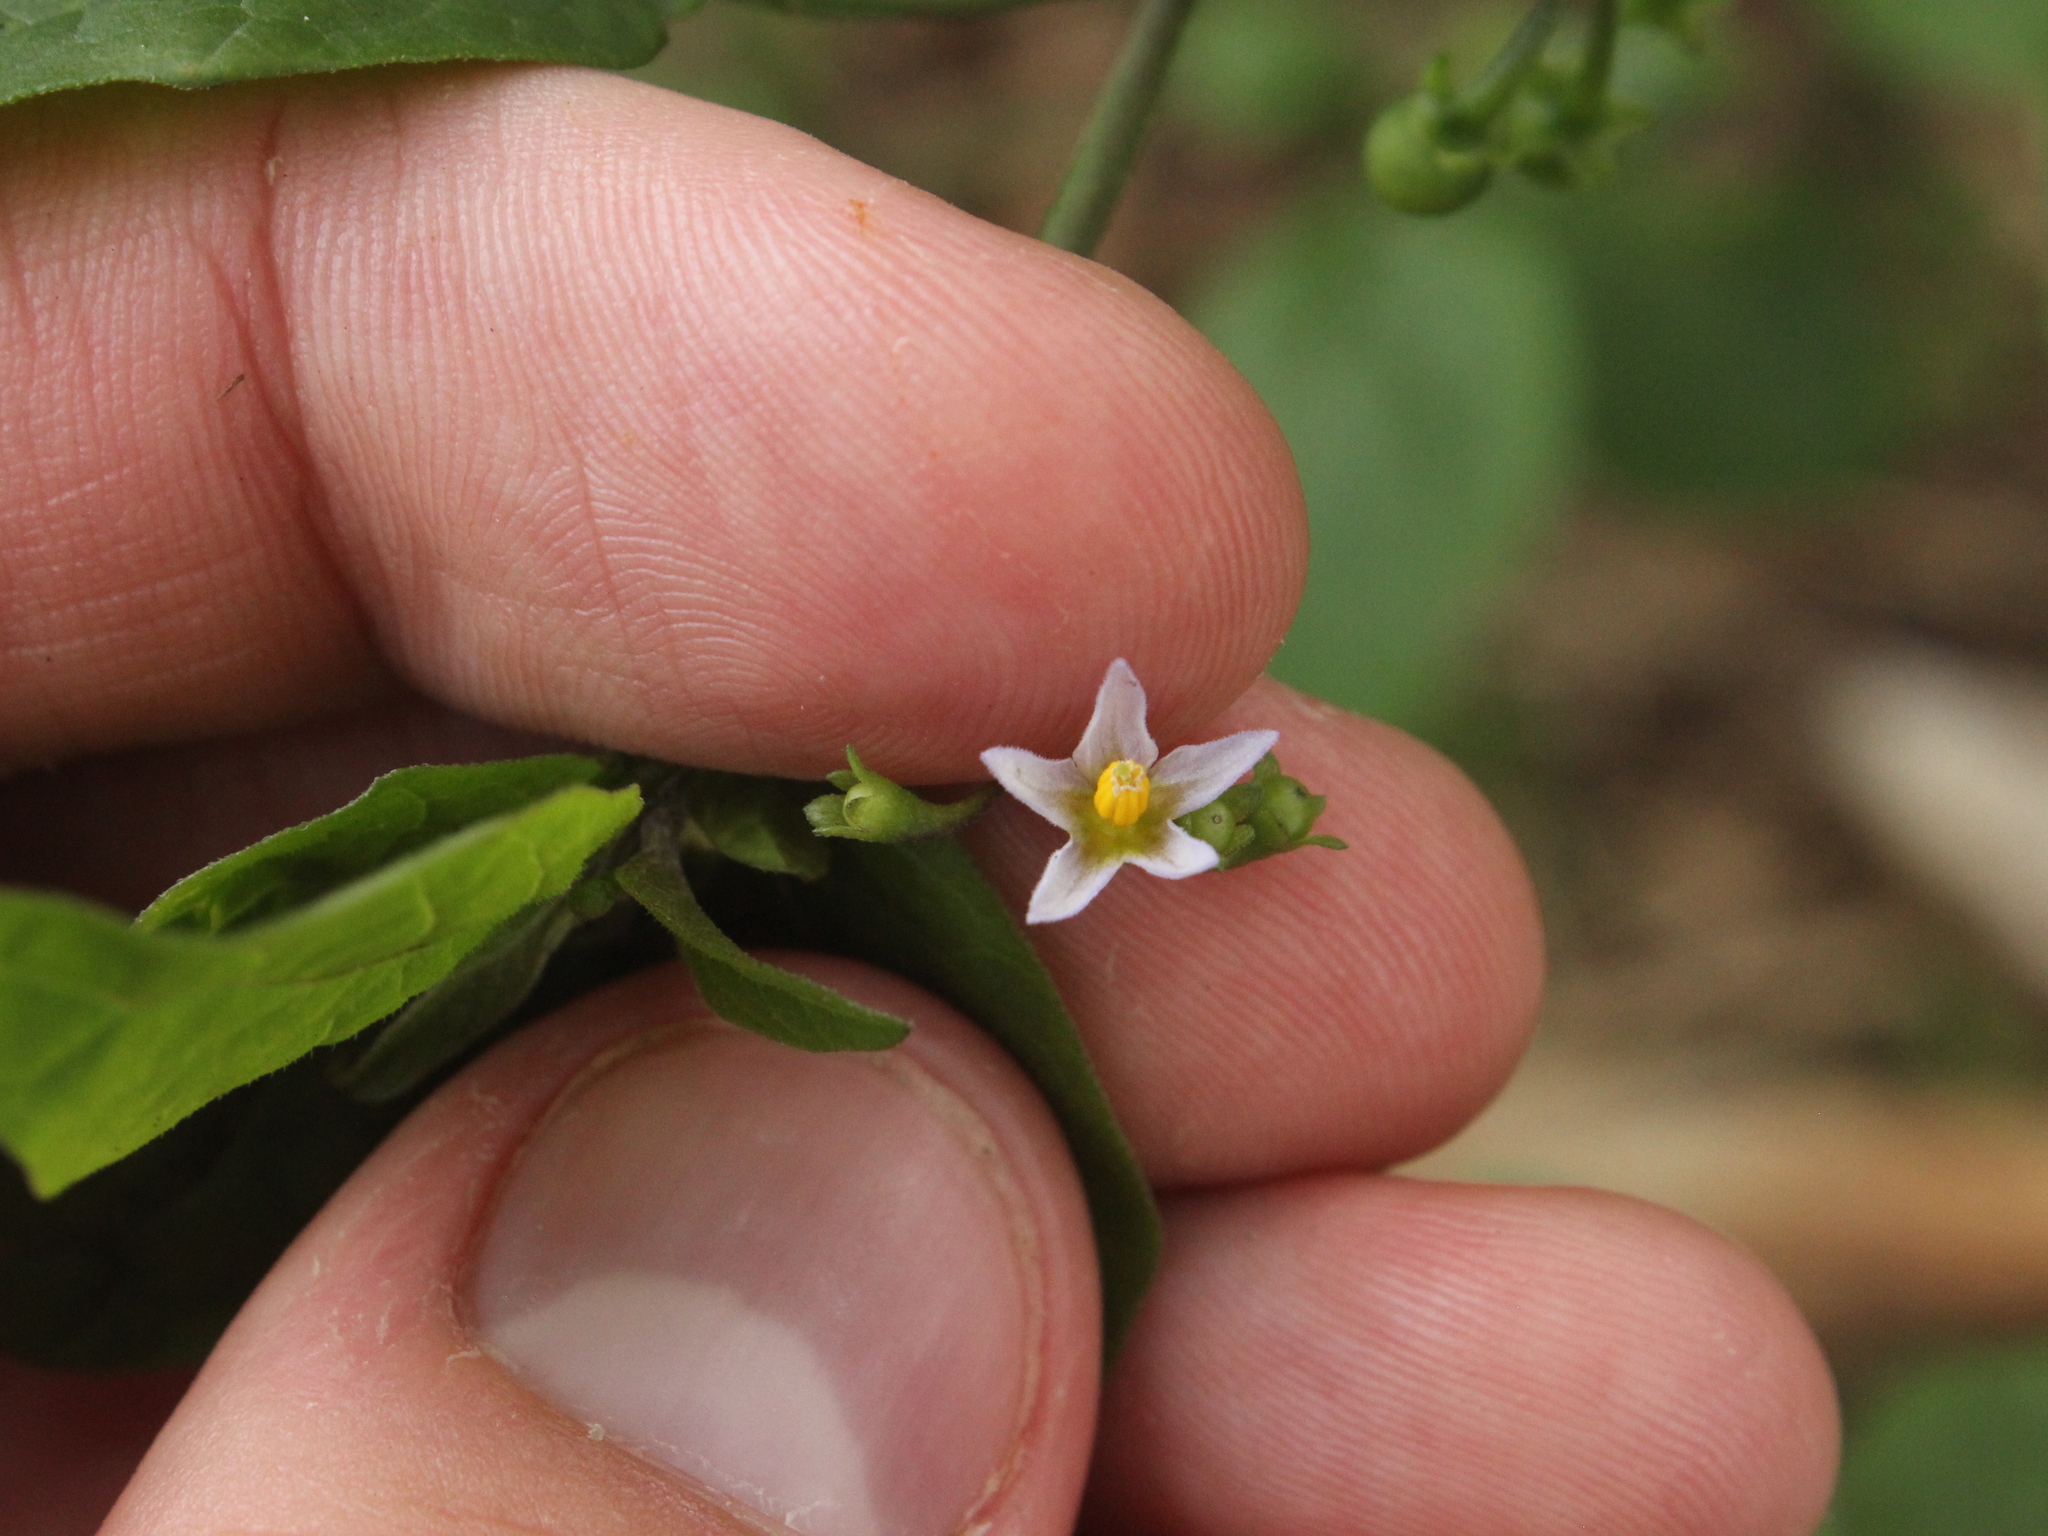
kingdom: Plantae
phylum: Tracheophyta
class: Magnoliopsida
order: Solanales
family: Solanaceae
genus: Solanum
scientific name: Solanum americanum
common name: American black nightshade
